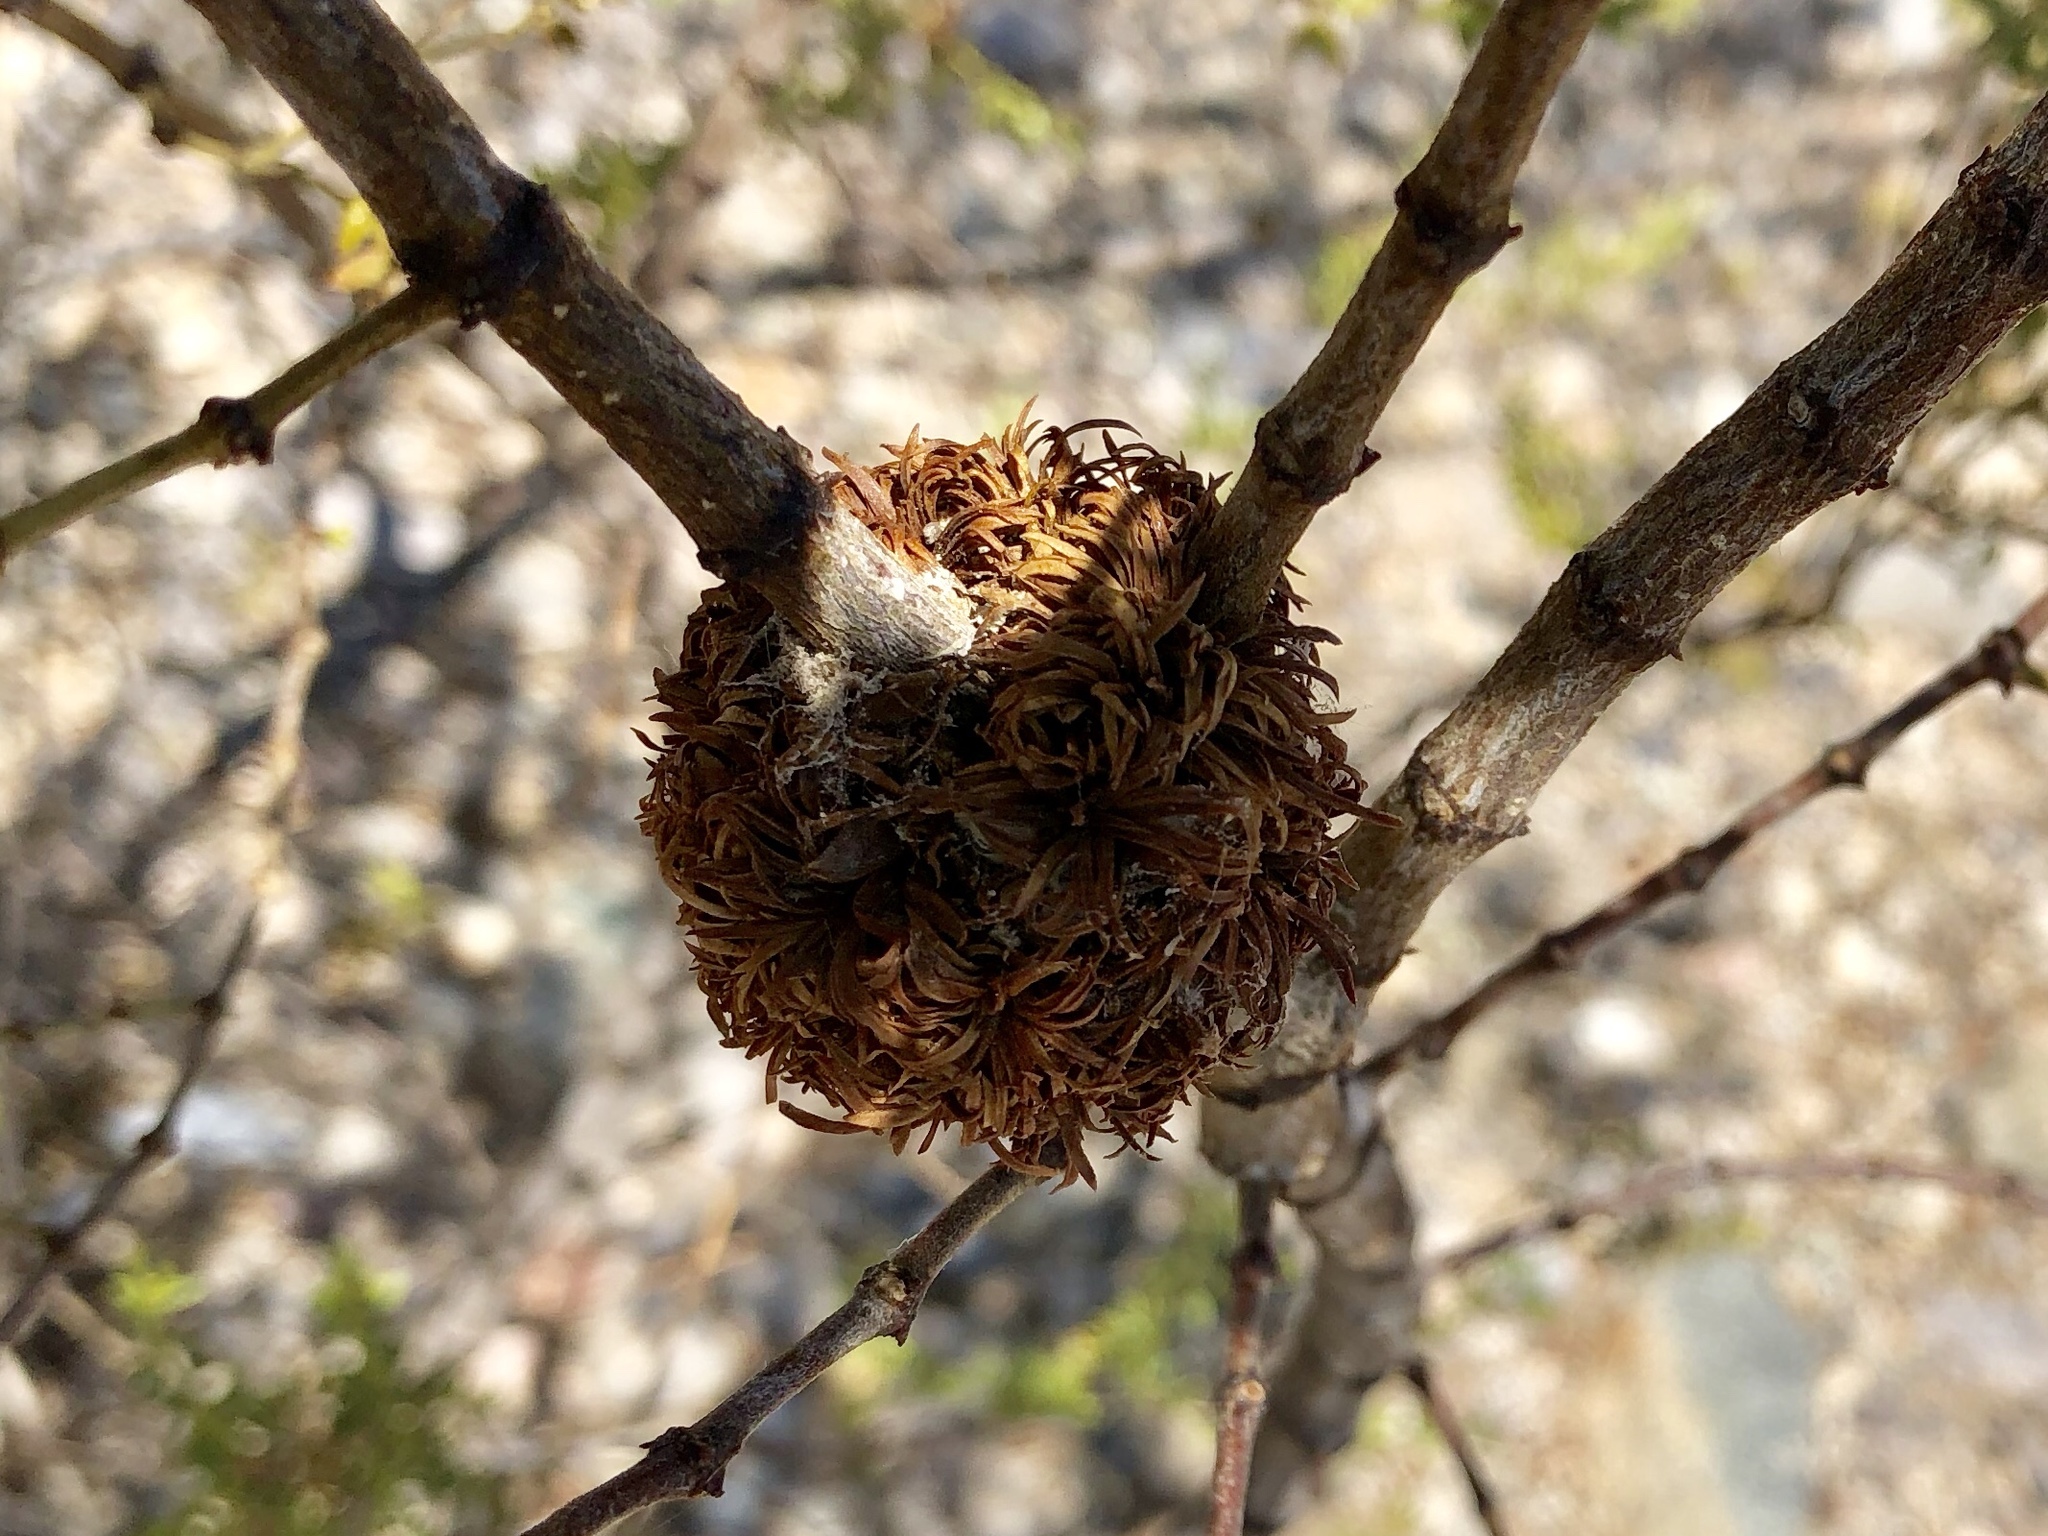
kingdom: Animalia
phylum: Arthropoda
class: Insecta
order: Diptera
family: Cecidomyiidae
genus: Asphondylia
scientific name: Asphondylia auripila
